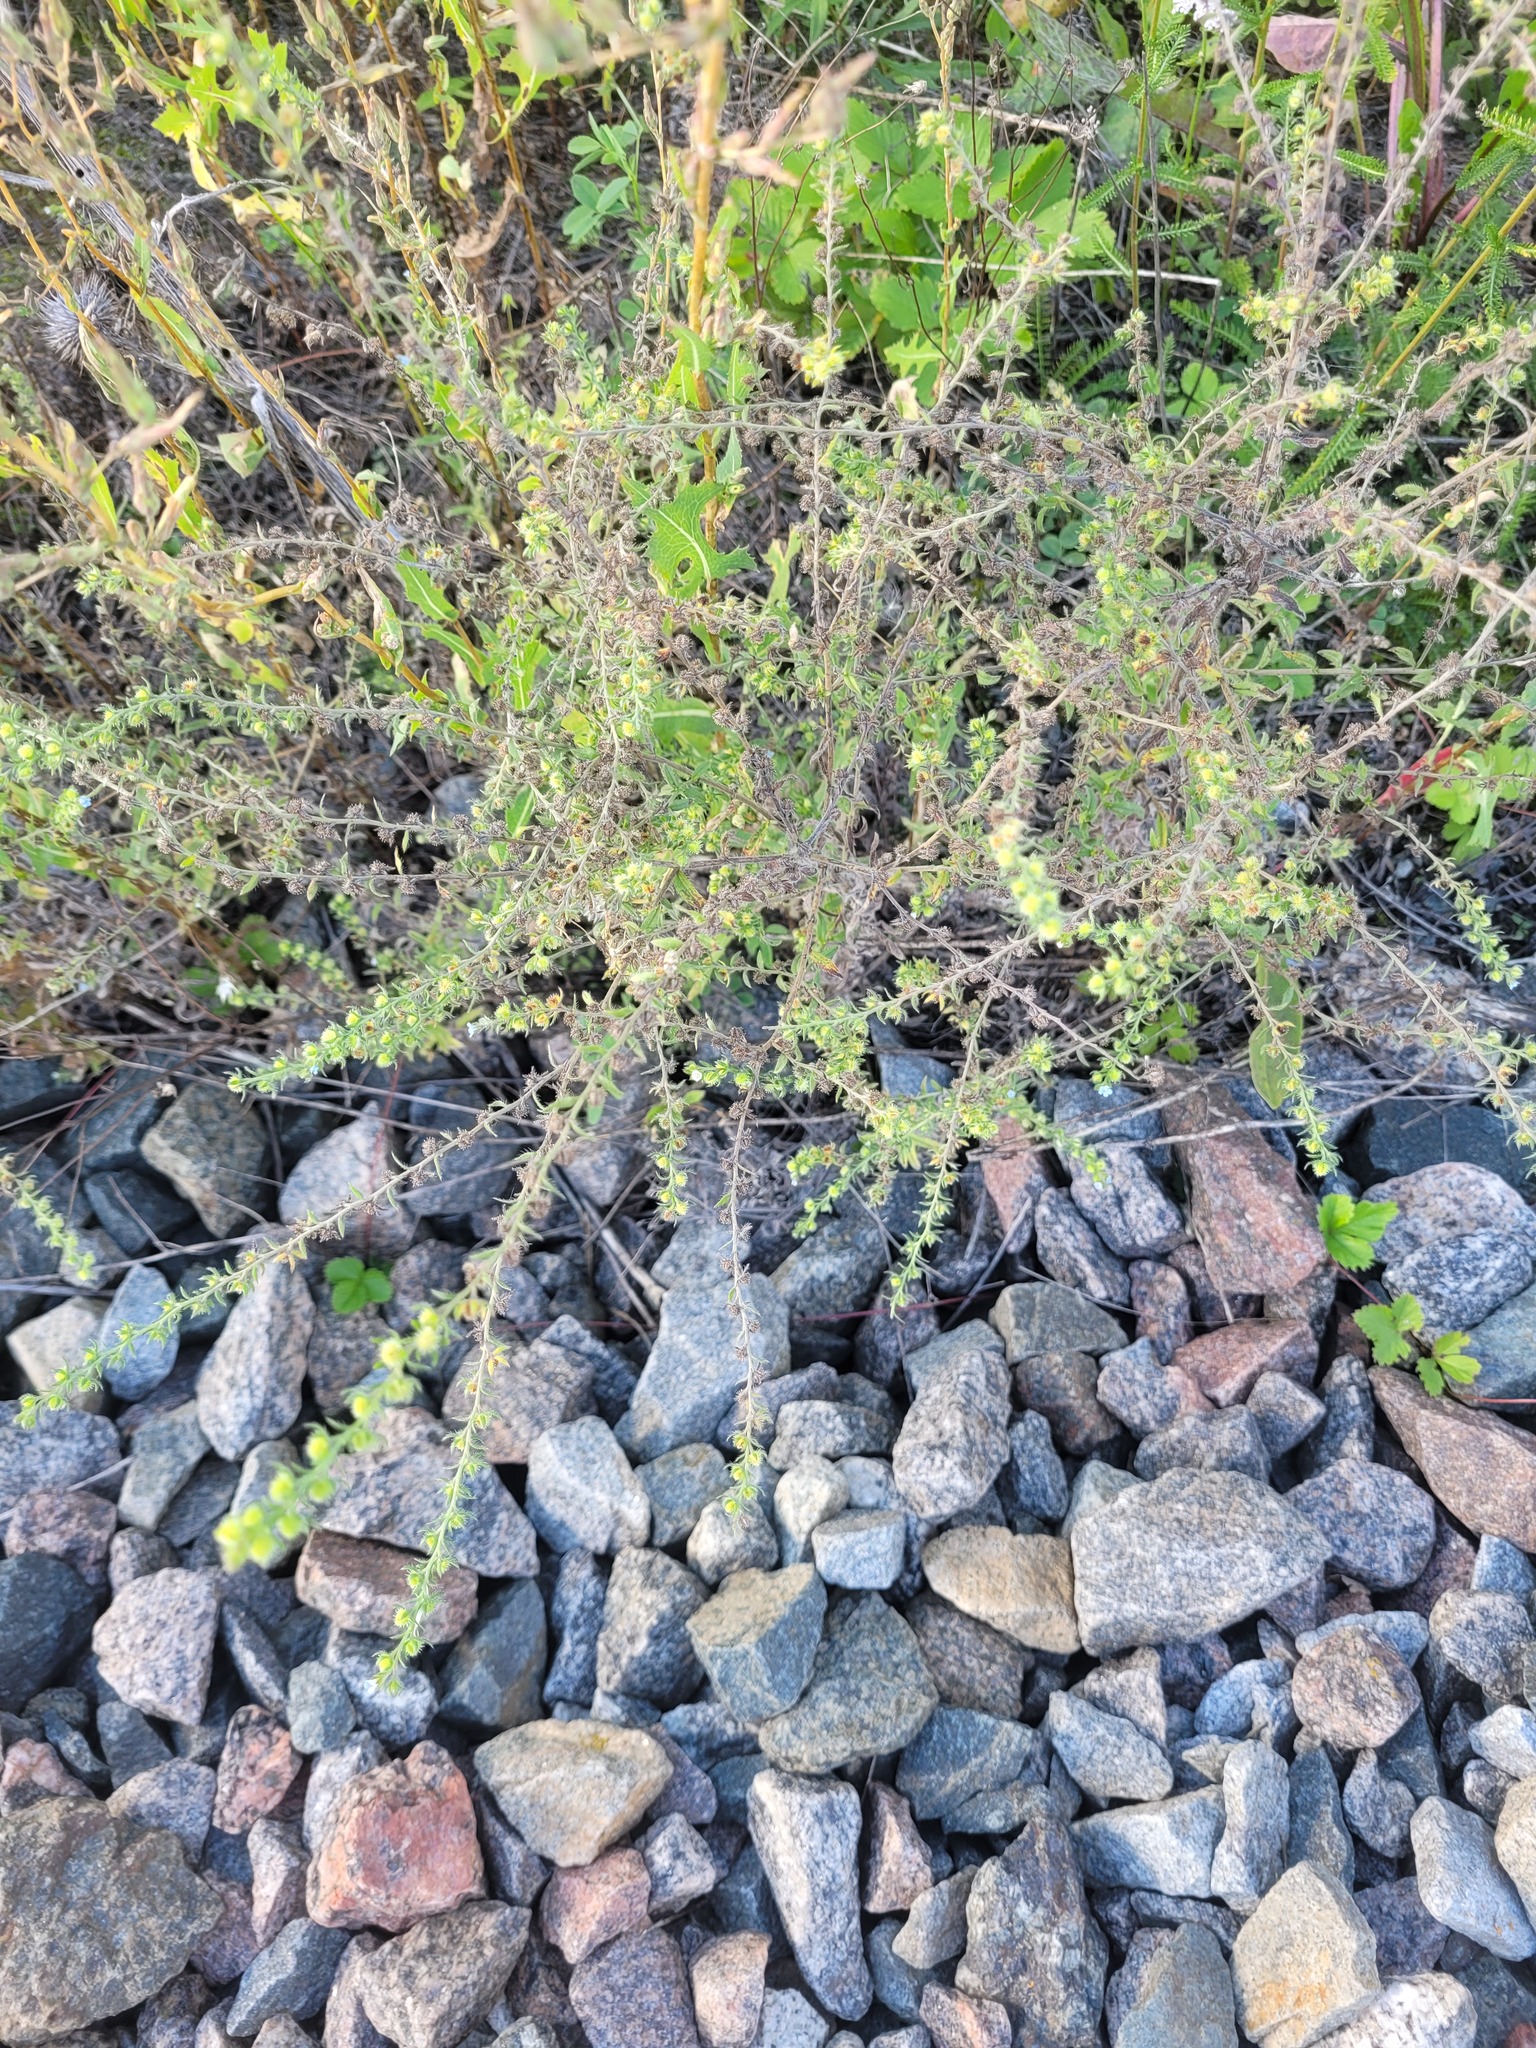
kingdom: Plantae
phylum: Tracheophyta
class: Magnoliopsida
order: Boraginales
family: Boraginaceae
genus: Lappula
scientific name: Lappula squarrosa
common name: European stickseed
